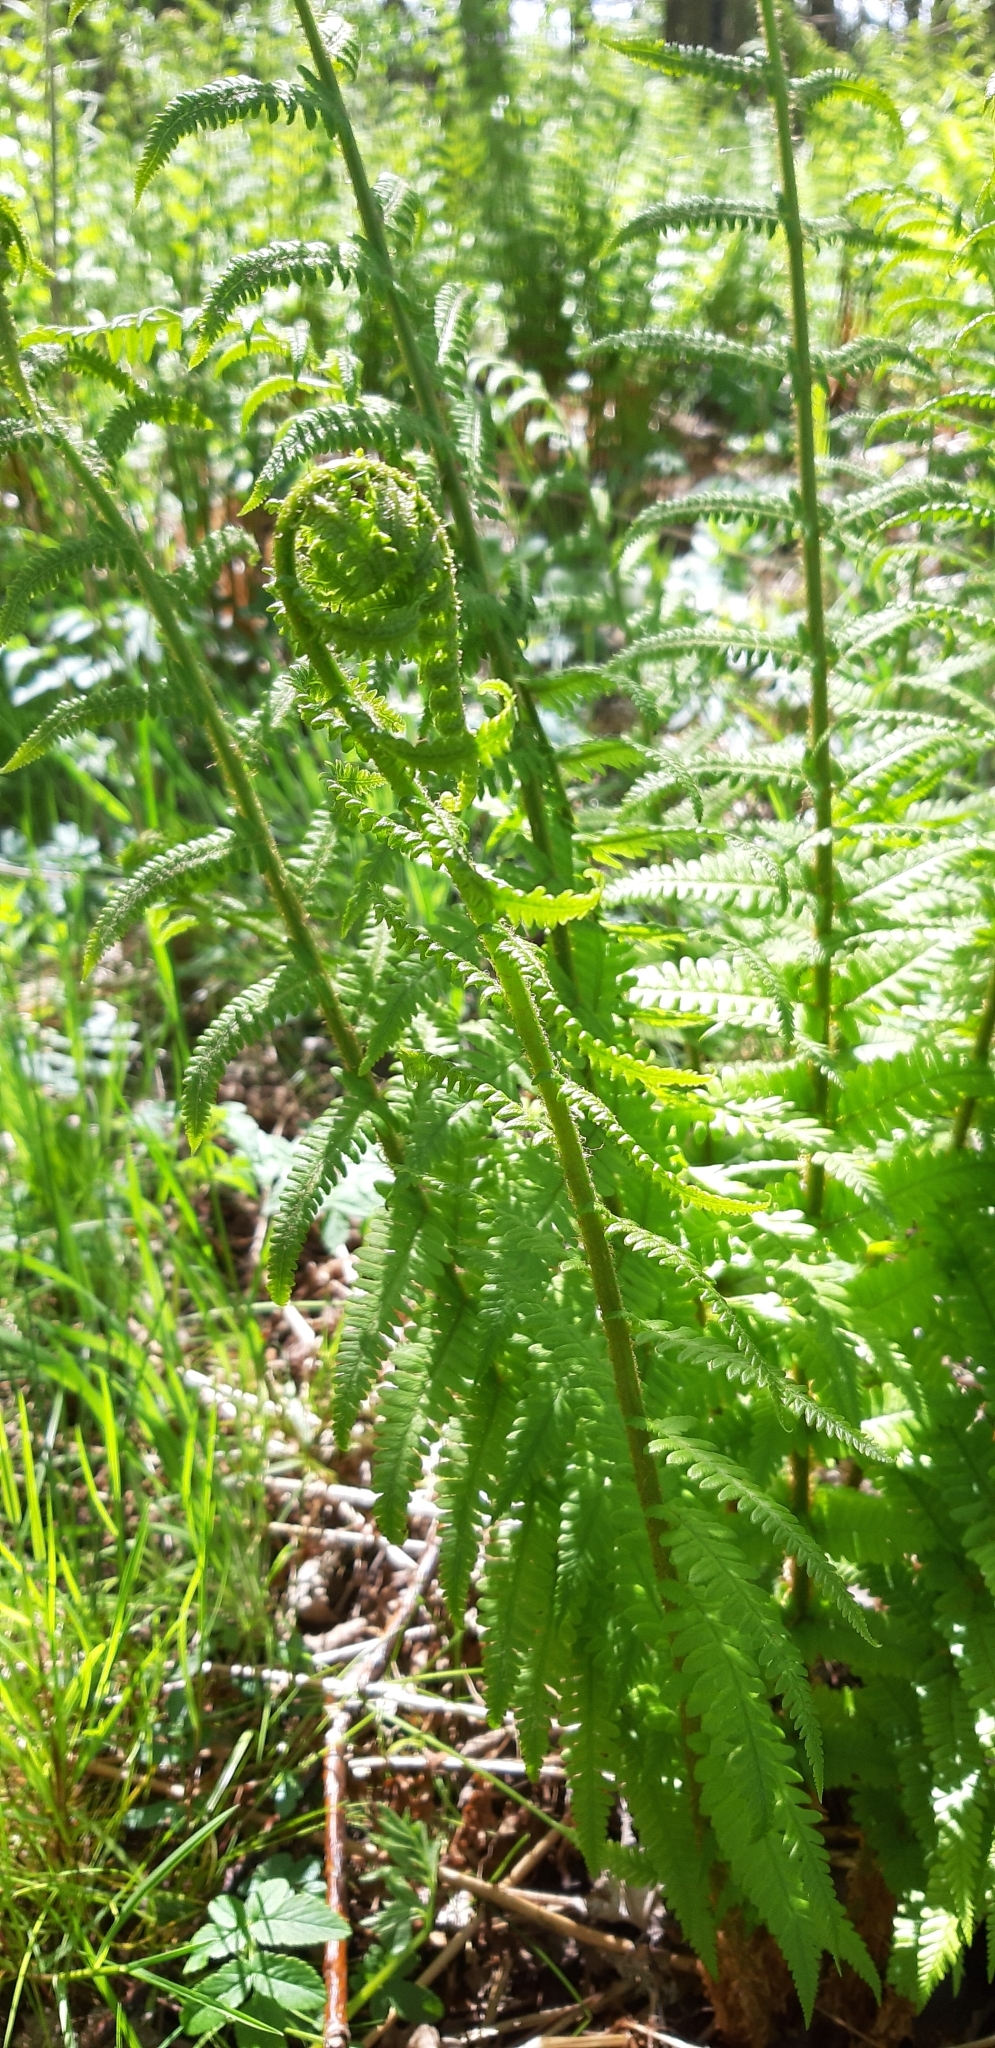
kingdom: Plantae
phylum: Tracheophyta
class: Polypodiopsida
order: Polypodiales
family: Dryopteridaceae
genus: Dryopteris
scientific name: Dryopteris filix-mas
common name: Male fern
